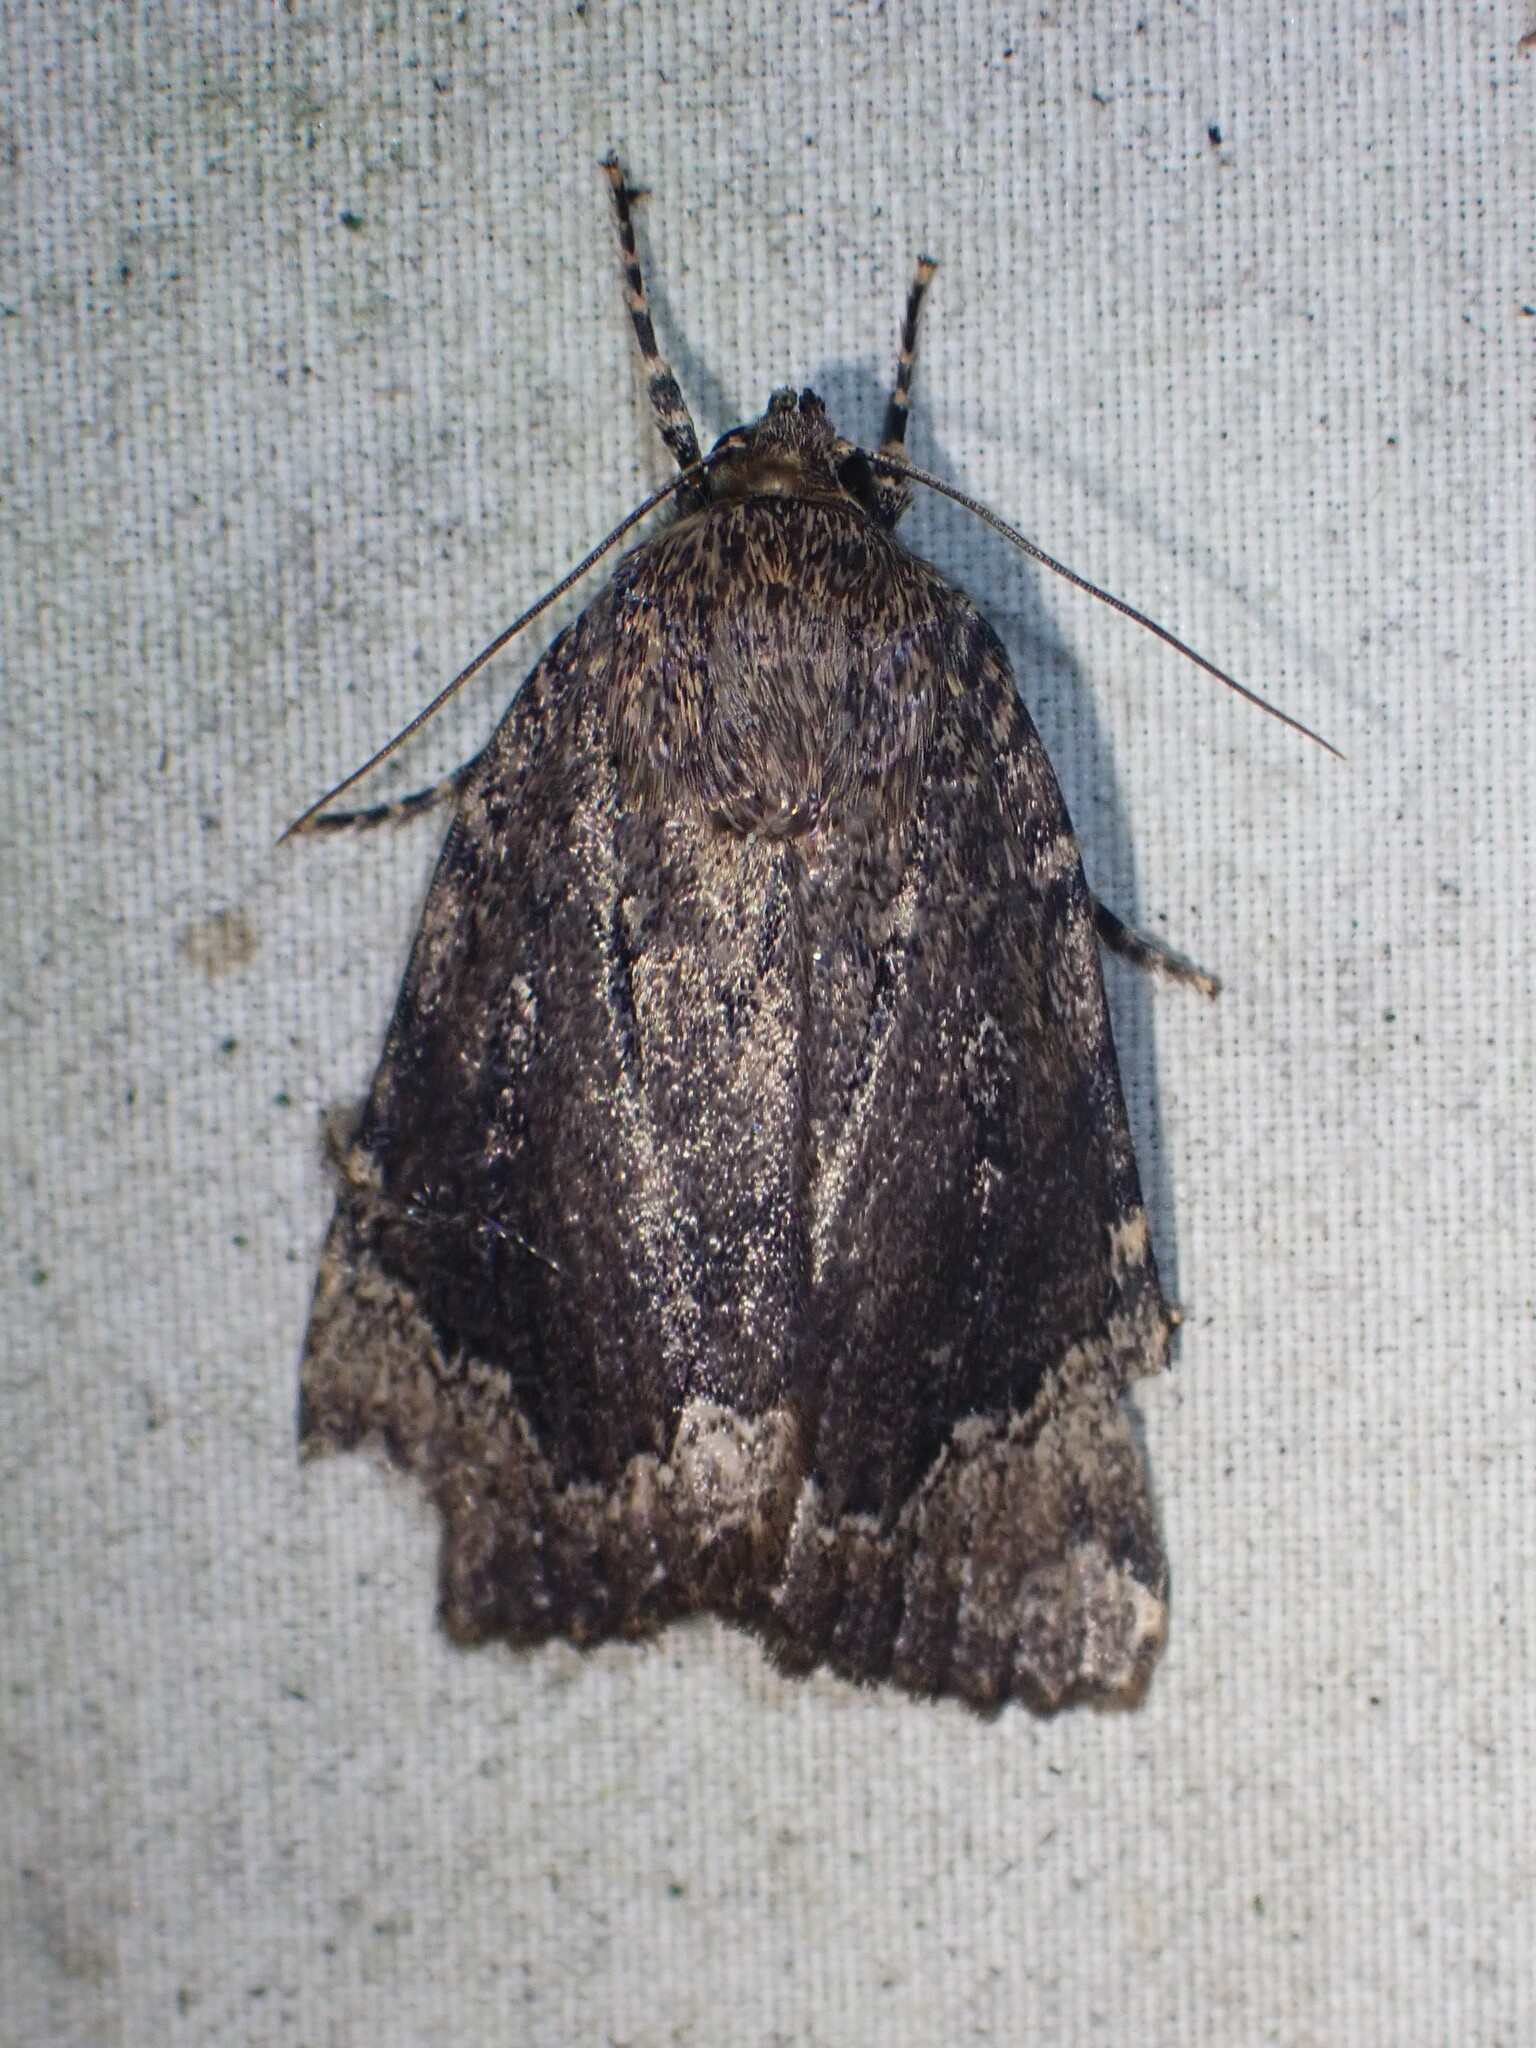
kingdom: Animalia
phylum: Arthropoda
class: Insecta
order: Lepidoptera
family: Noctuidae
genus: Amphipyra
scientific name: Amphipyra pyramidoides
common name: American copper underwing
